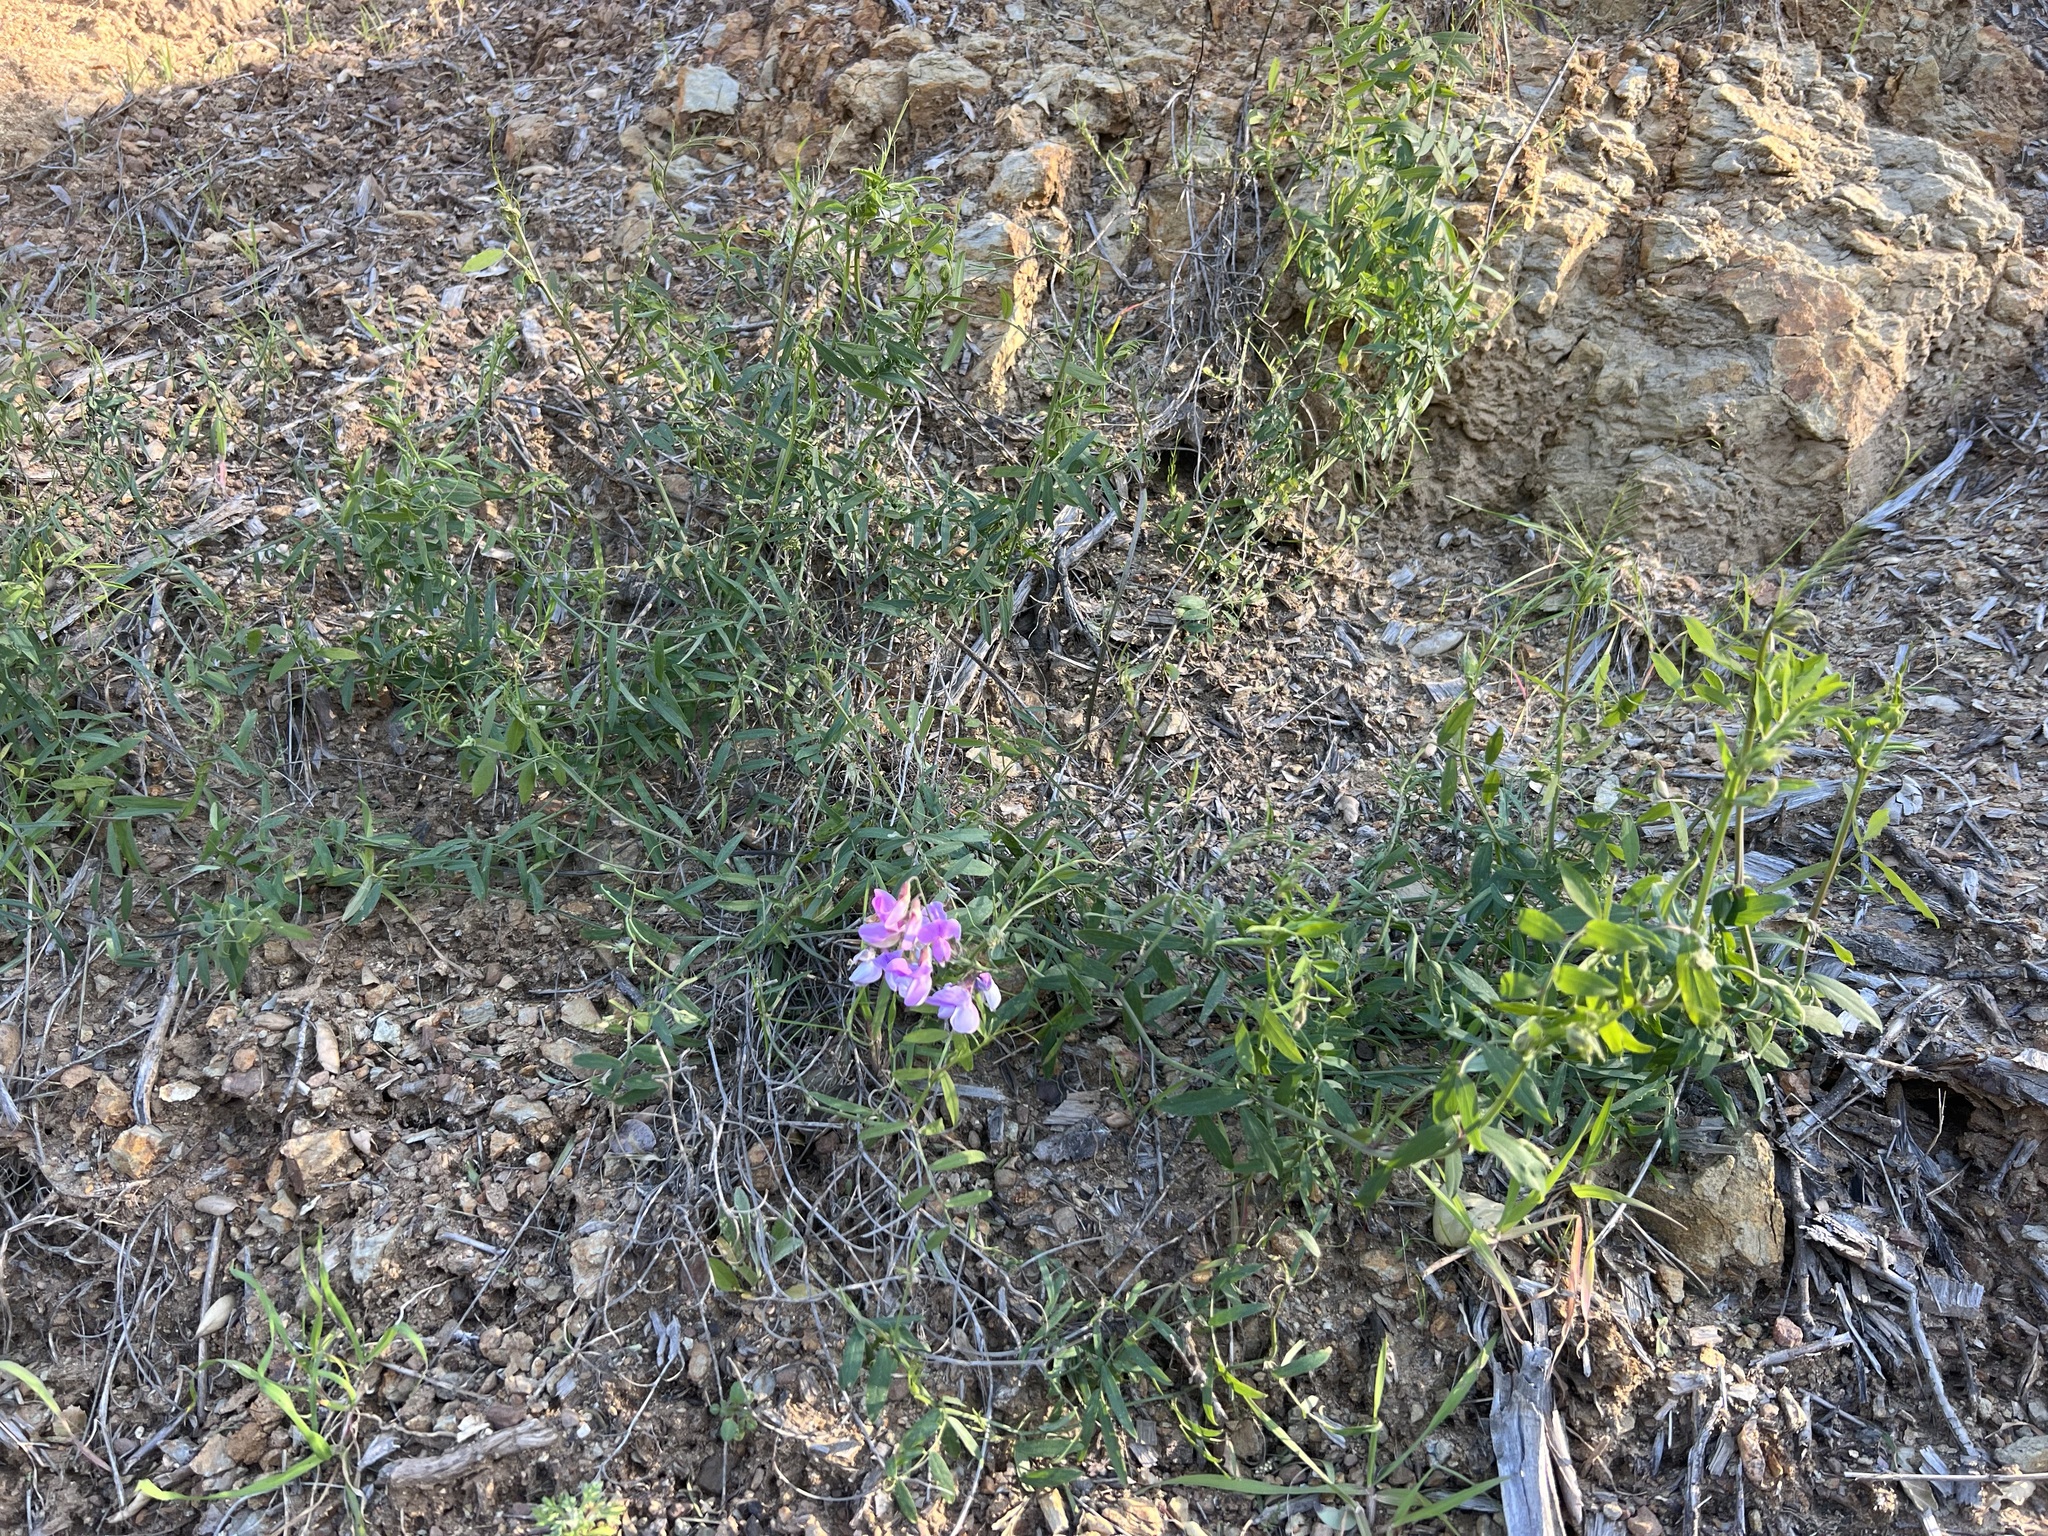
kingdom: Plantae
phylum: Tracheophyta
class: Magnoliopsida
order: Fabales
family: Fabaceae
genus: Lathyrus
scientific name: Lathyrus vestitus
